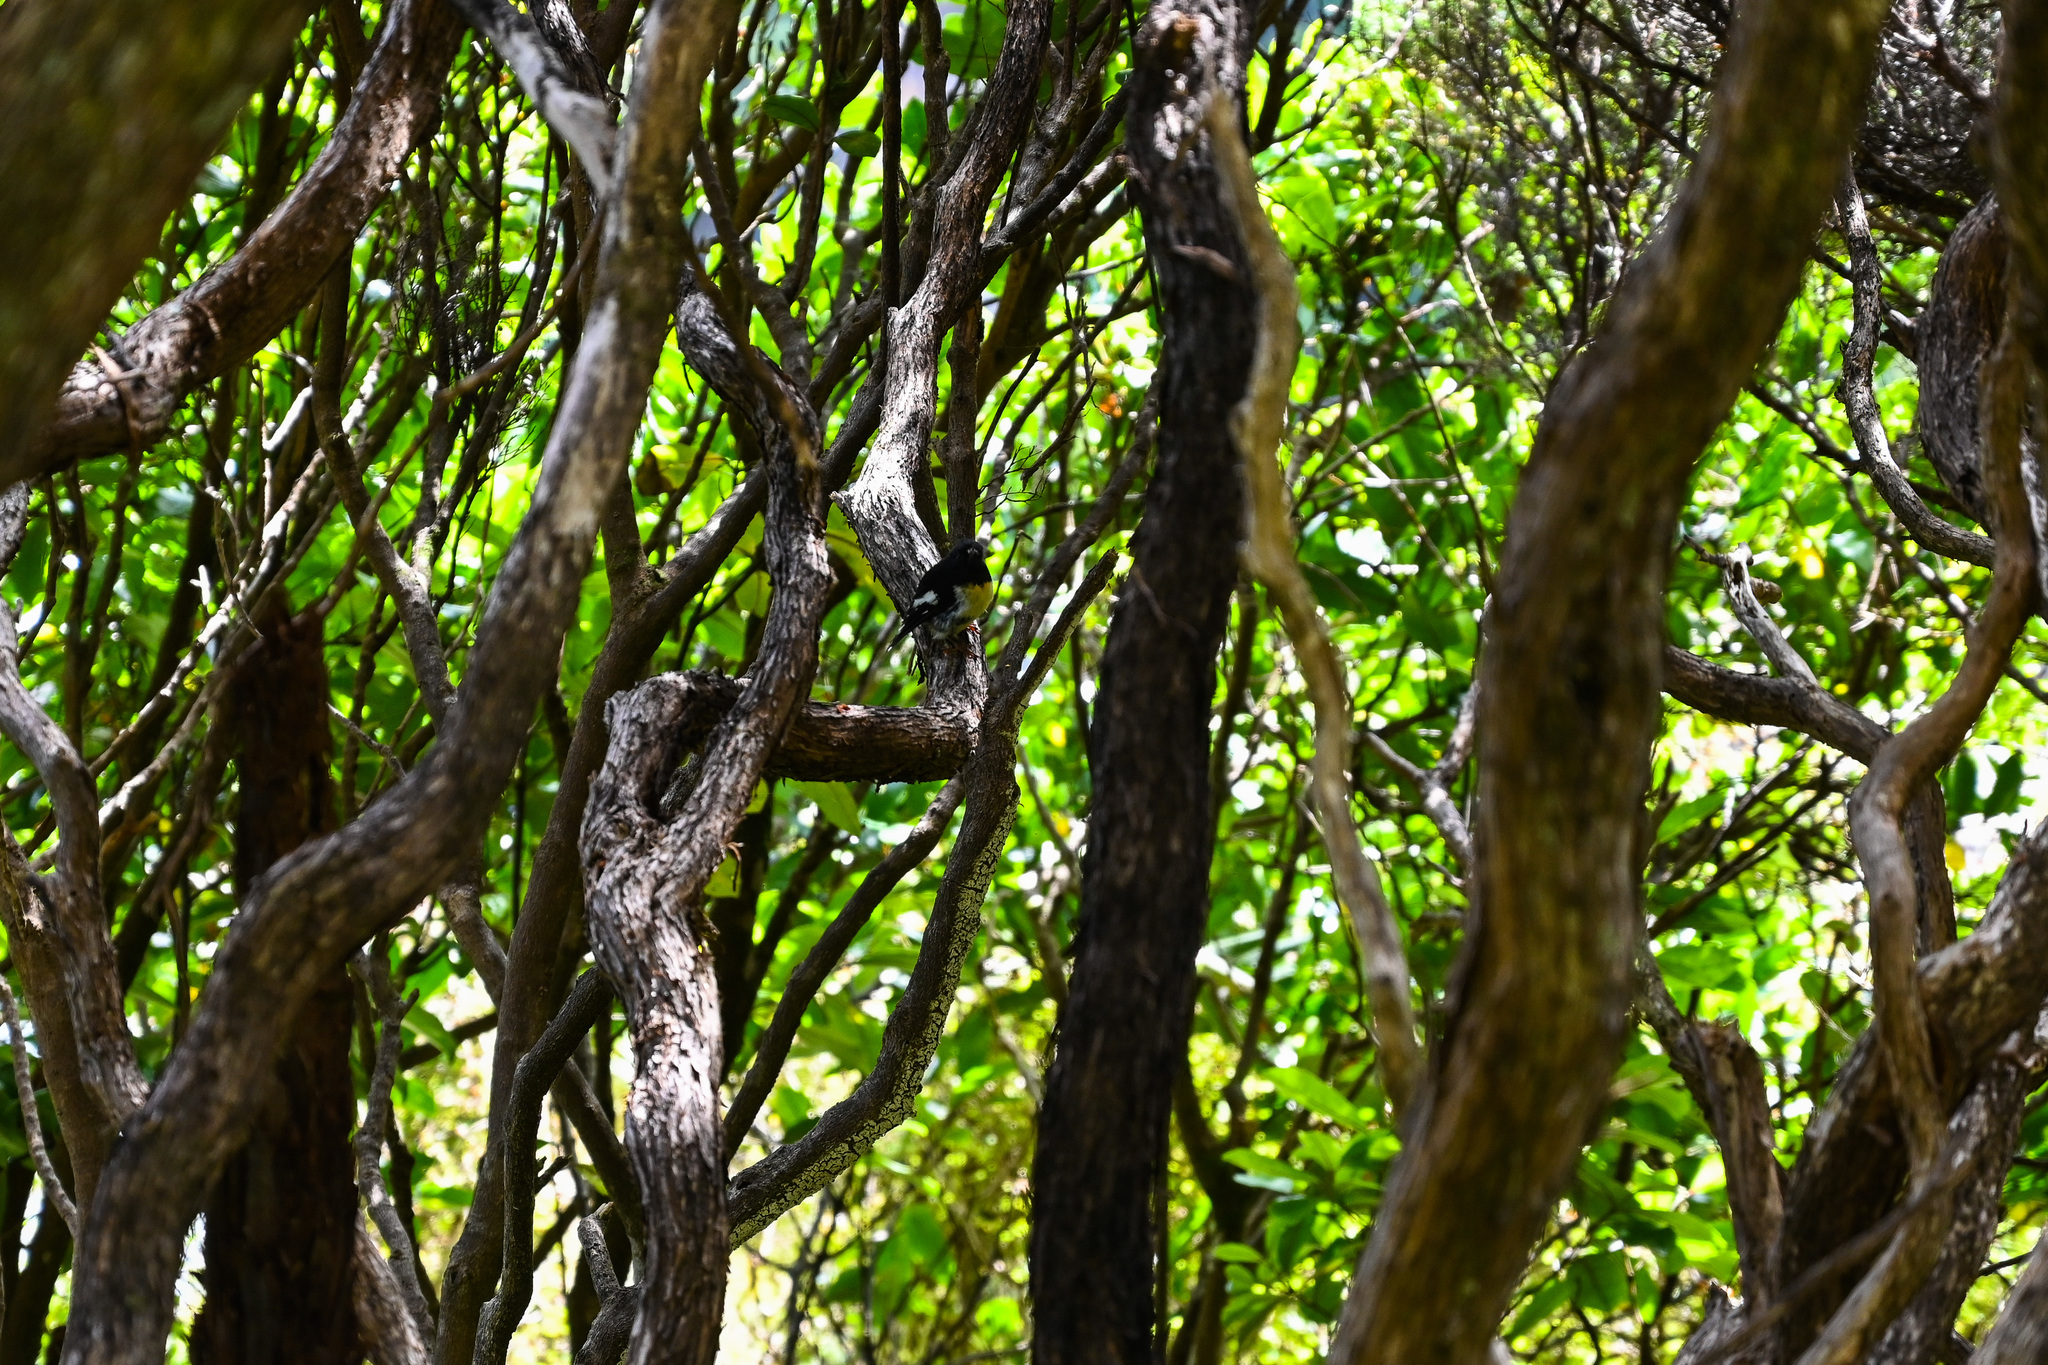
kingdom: Animalia
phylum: Chordata
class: Aves
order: Passeriformes
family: Petroicidae
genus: Petroica
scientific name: Petroica macrocephala
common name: Tomtit
